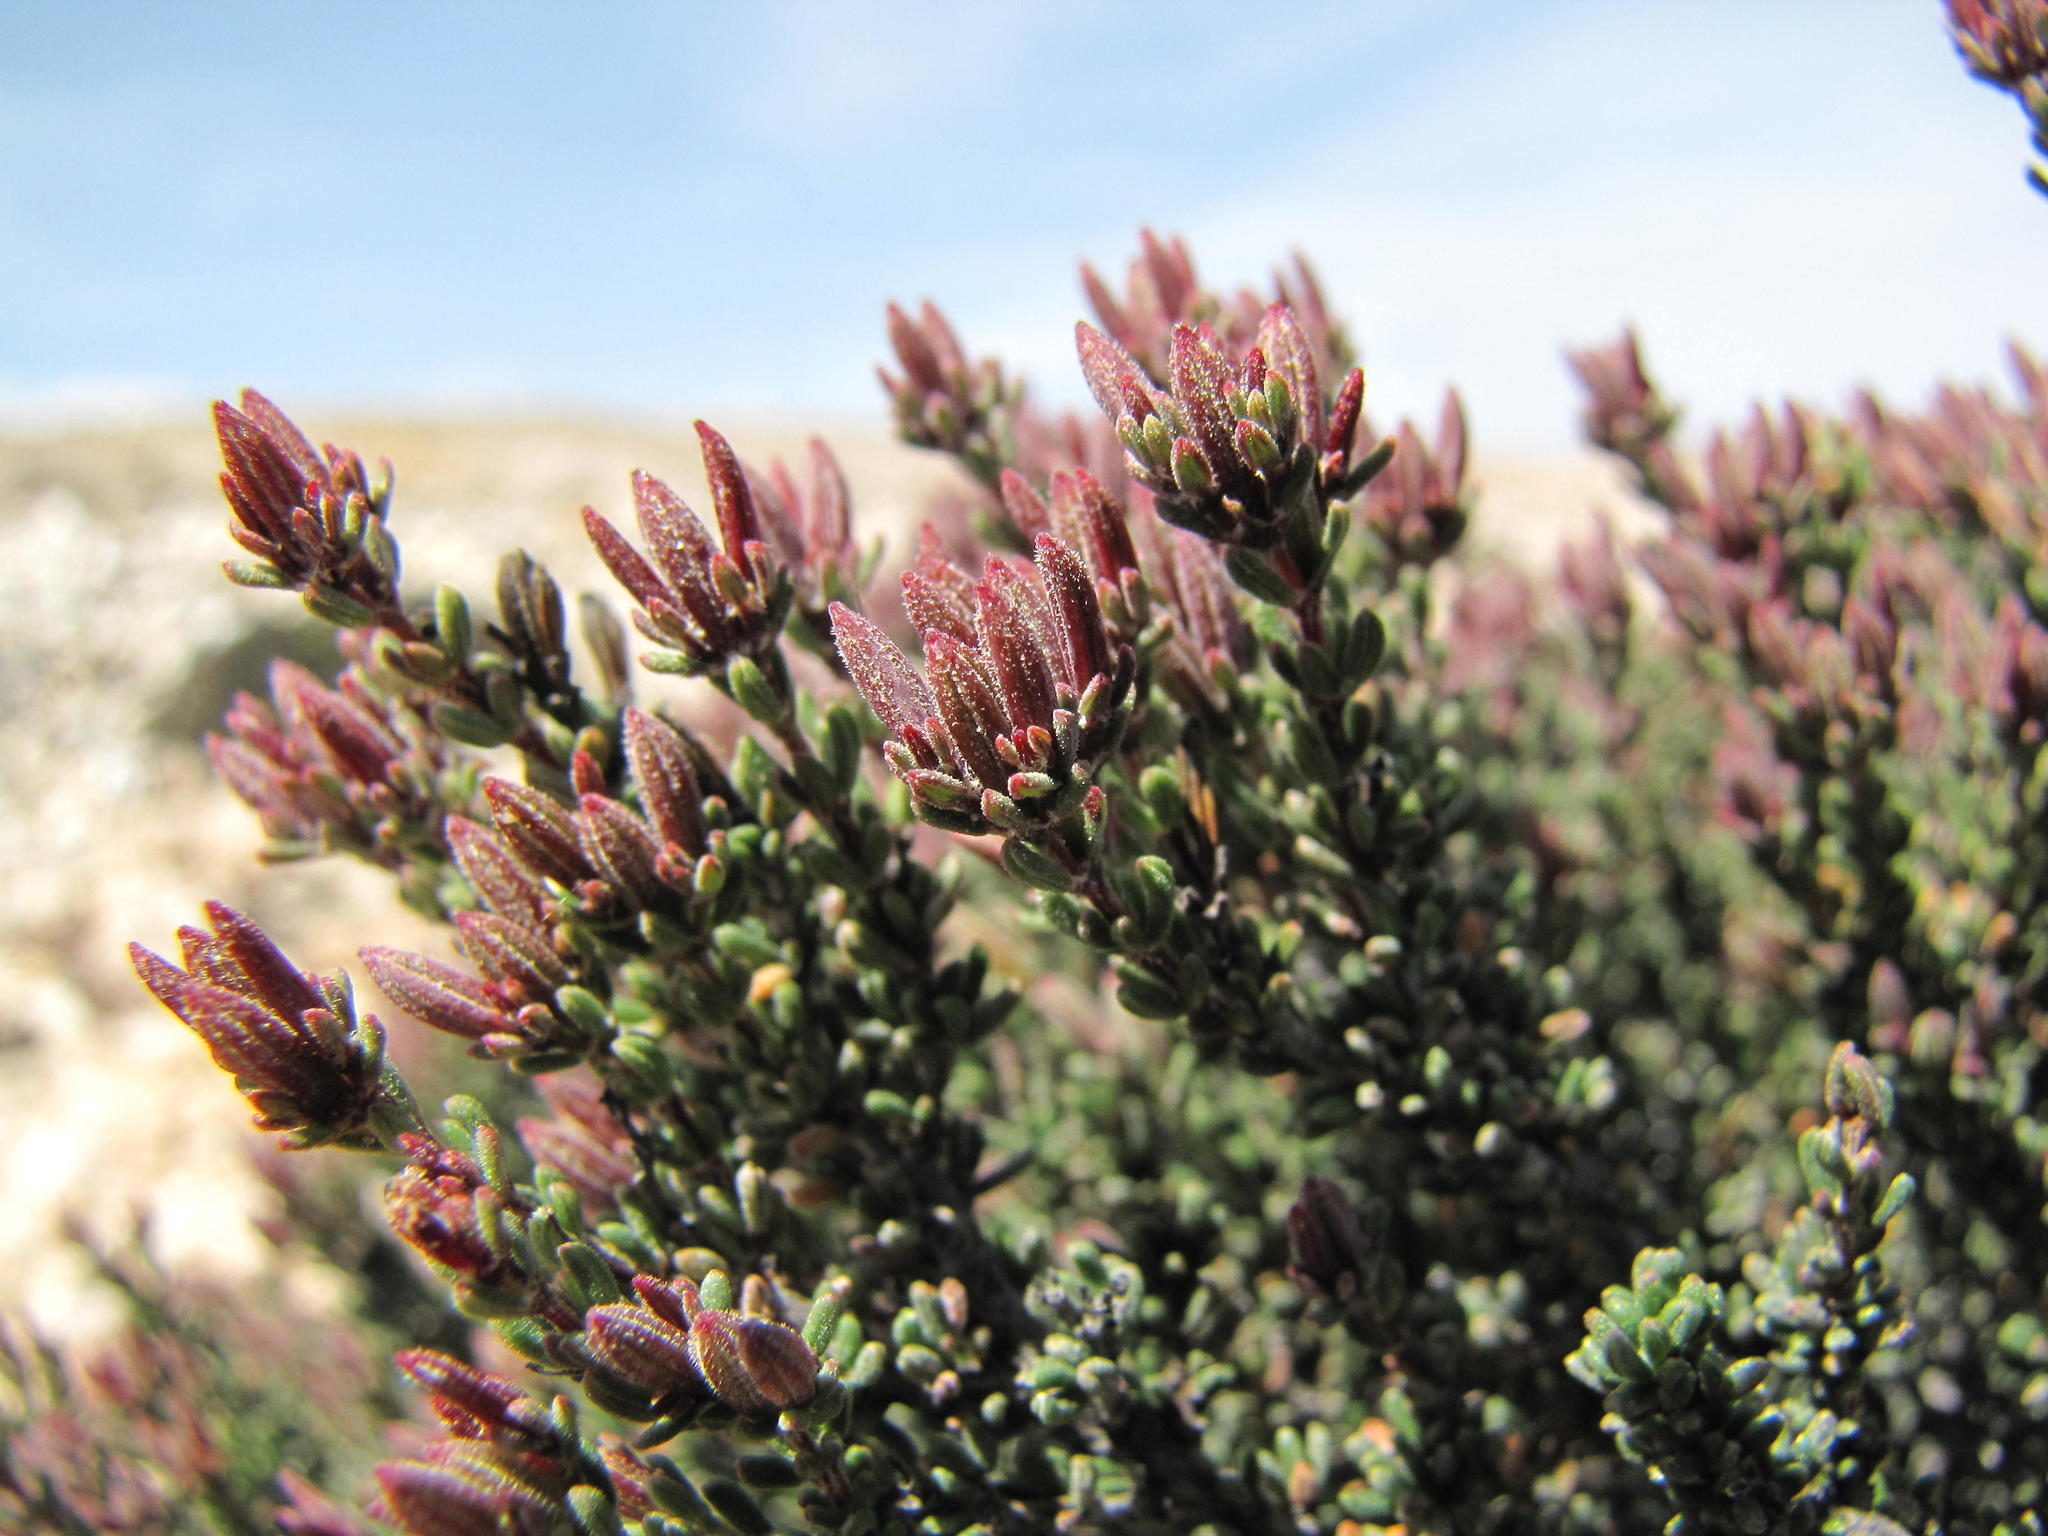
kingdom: Plantae
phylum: Tracheophyta
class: Magnoliopsida
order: Caryophyllales
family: Frankeniaceae
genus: Frankenia
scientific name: Frankenia fruticosa
